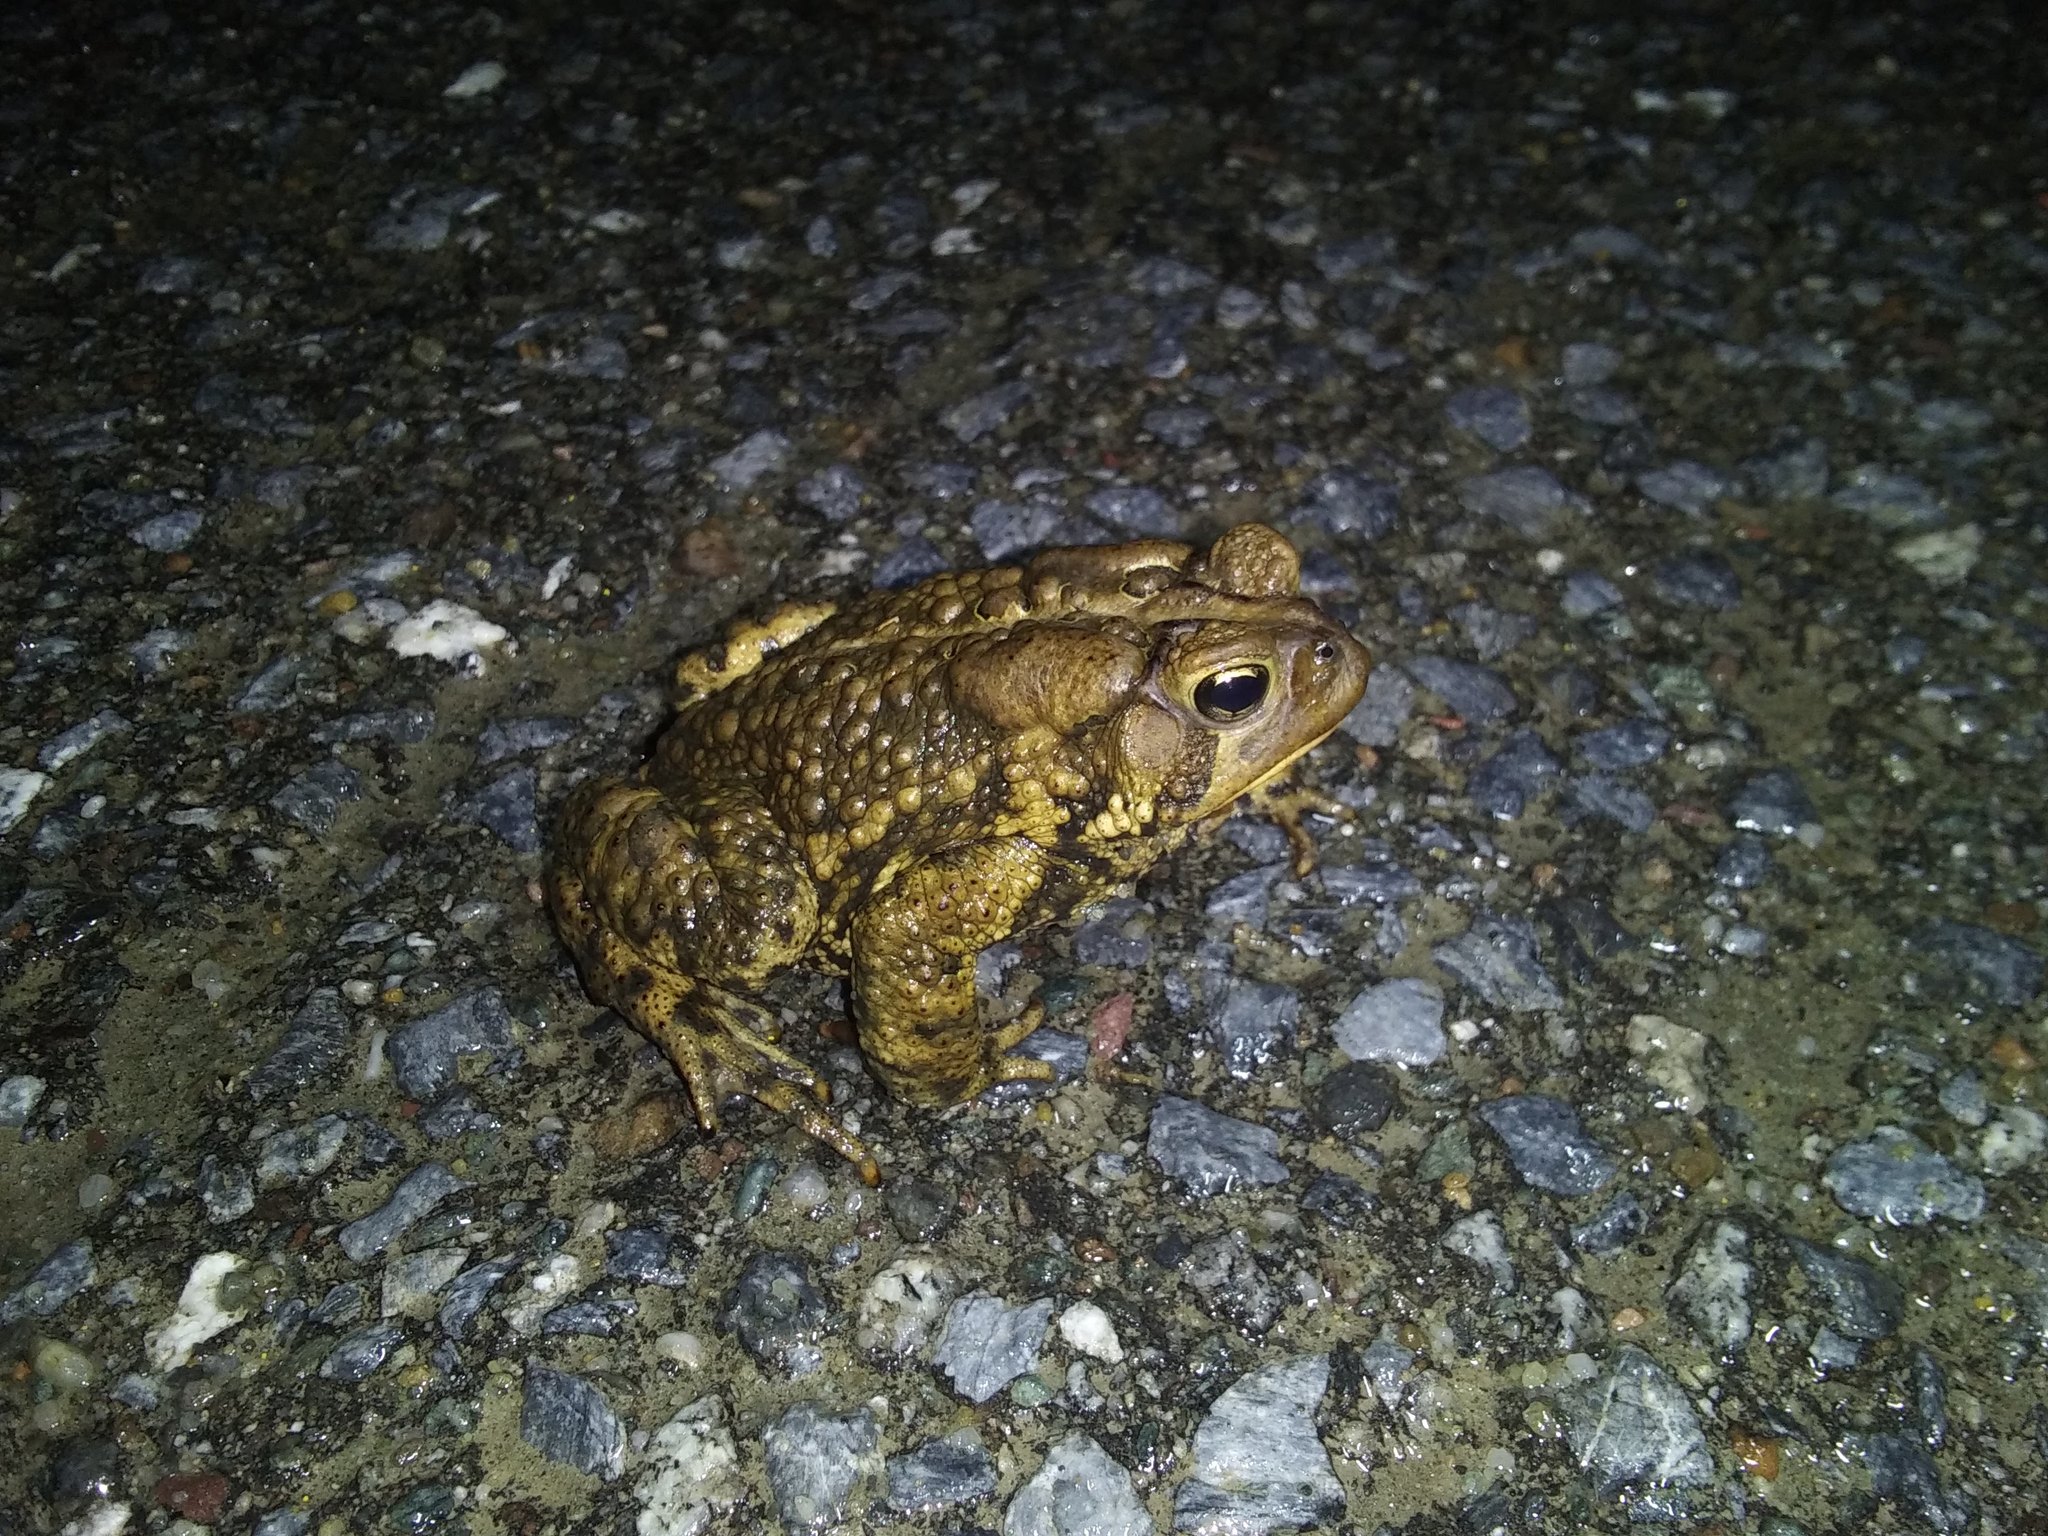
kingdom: Animalia
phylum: Chordata
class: Amphibia
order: Anura
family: Bufonidae
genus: Anaxyrus
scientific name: Anaxyrus americanus
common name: American toad
